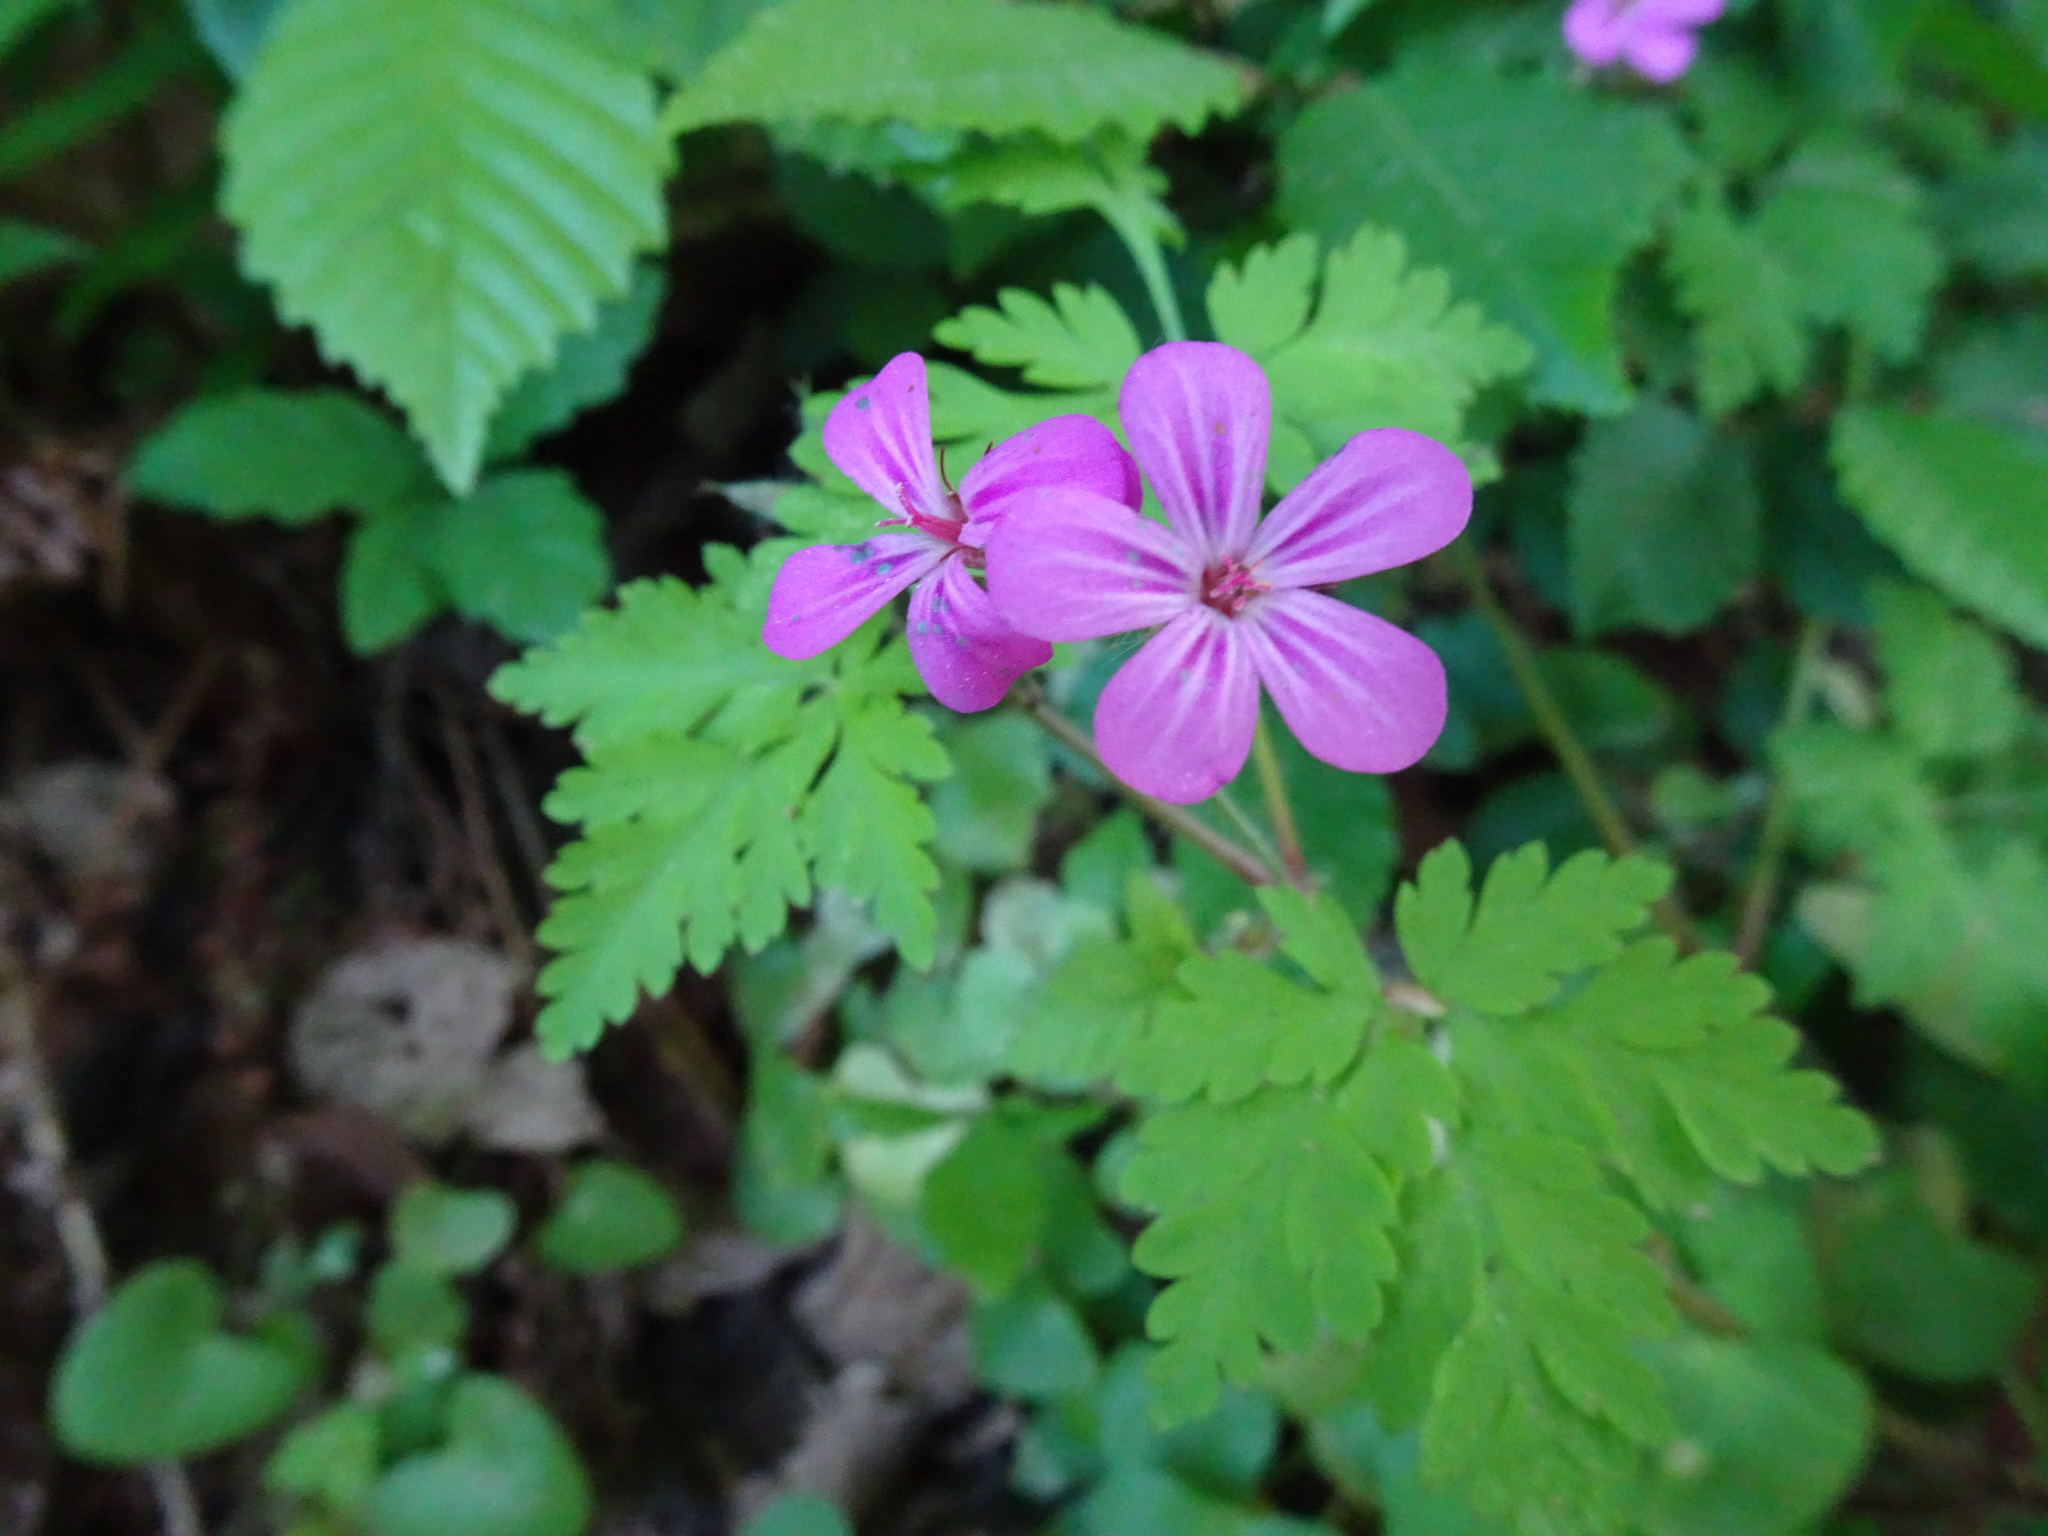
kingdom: Plantae
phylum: Tracheophyta
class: Magnoliopsida
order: Geraniales
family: Geraniaceae
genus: Geranium
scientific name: Geranium robertianum
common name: Herb-robert
